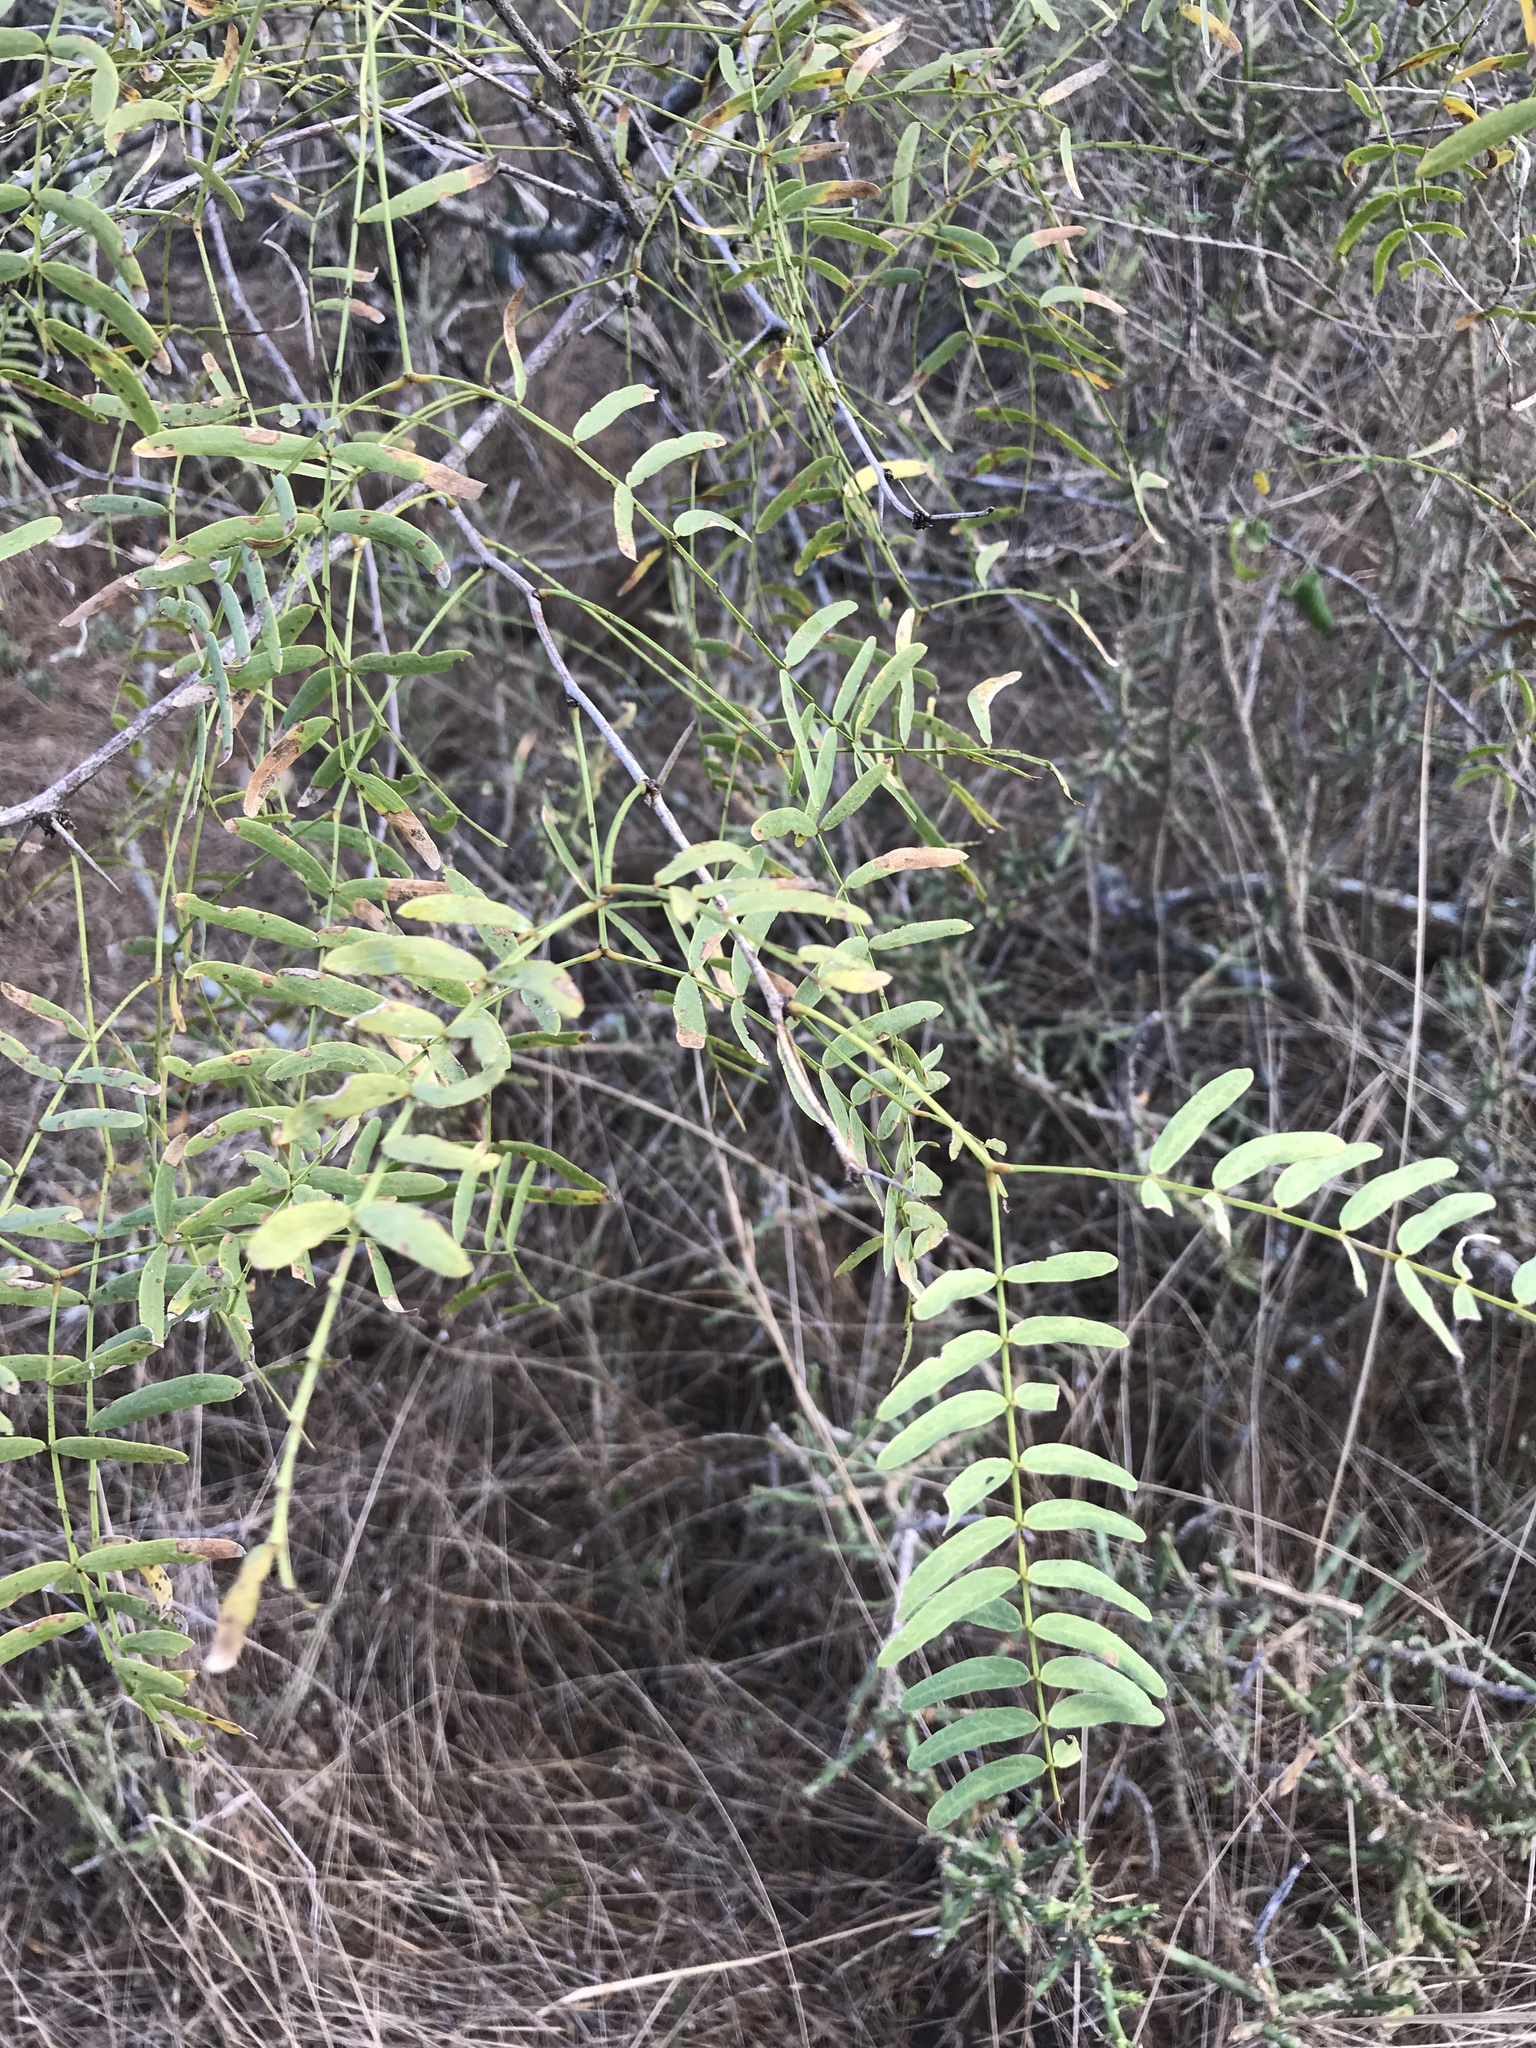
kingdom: Plantae
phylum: Tracheophyta
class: Magnoliopsida
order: Fabales
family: Fabaceae
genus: Prosopis
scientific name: Prosopis glandulosa
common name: Honey mesquite
